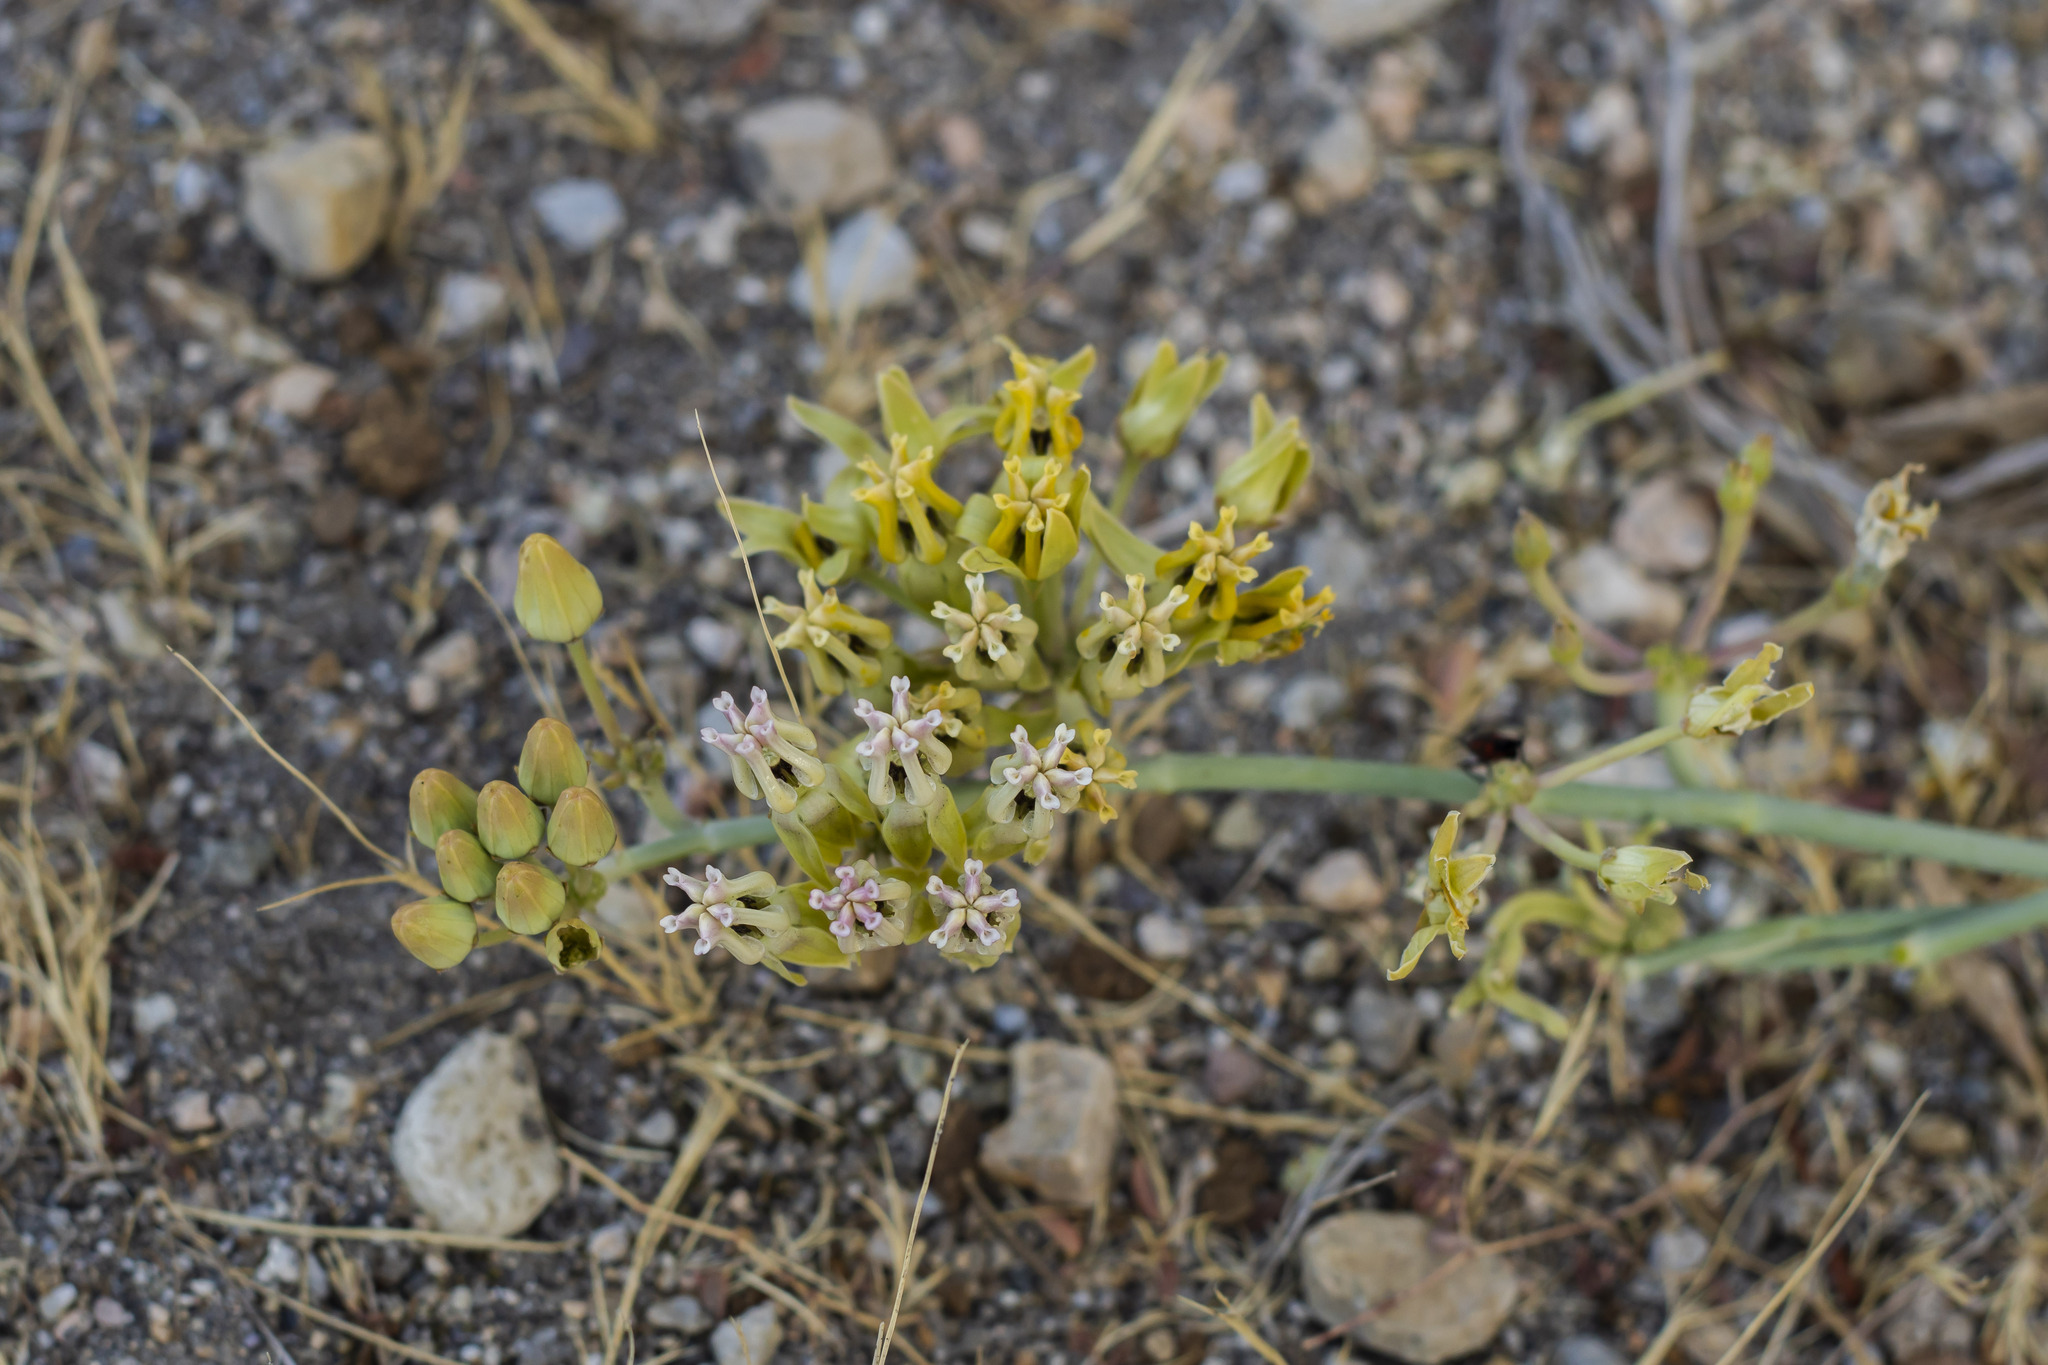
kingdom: Plantae
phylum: Tracheophyta
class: Magnoliopsida
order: Gentianales
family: Apocynaceae
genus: Asclepias
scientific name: Asclepias subulata
